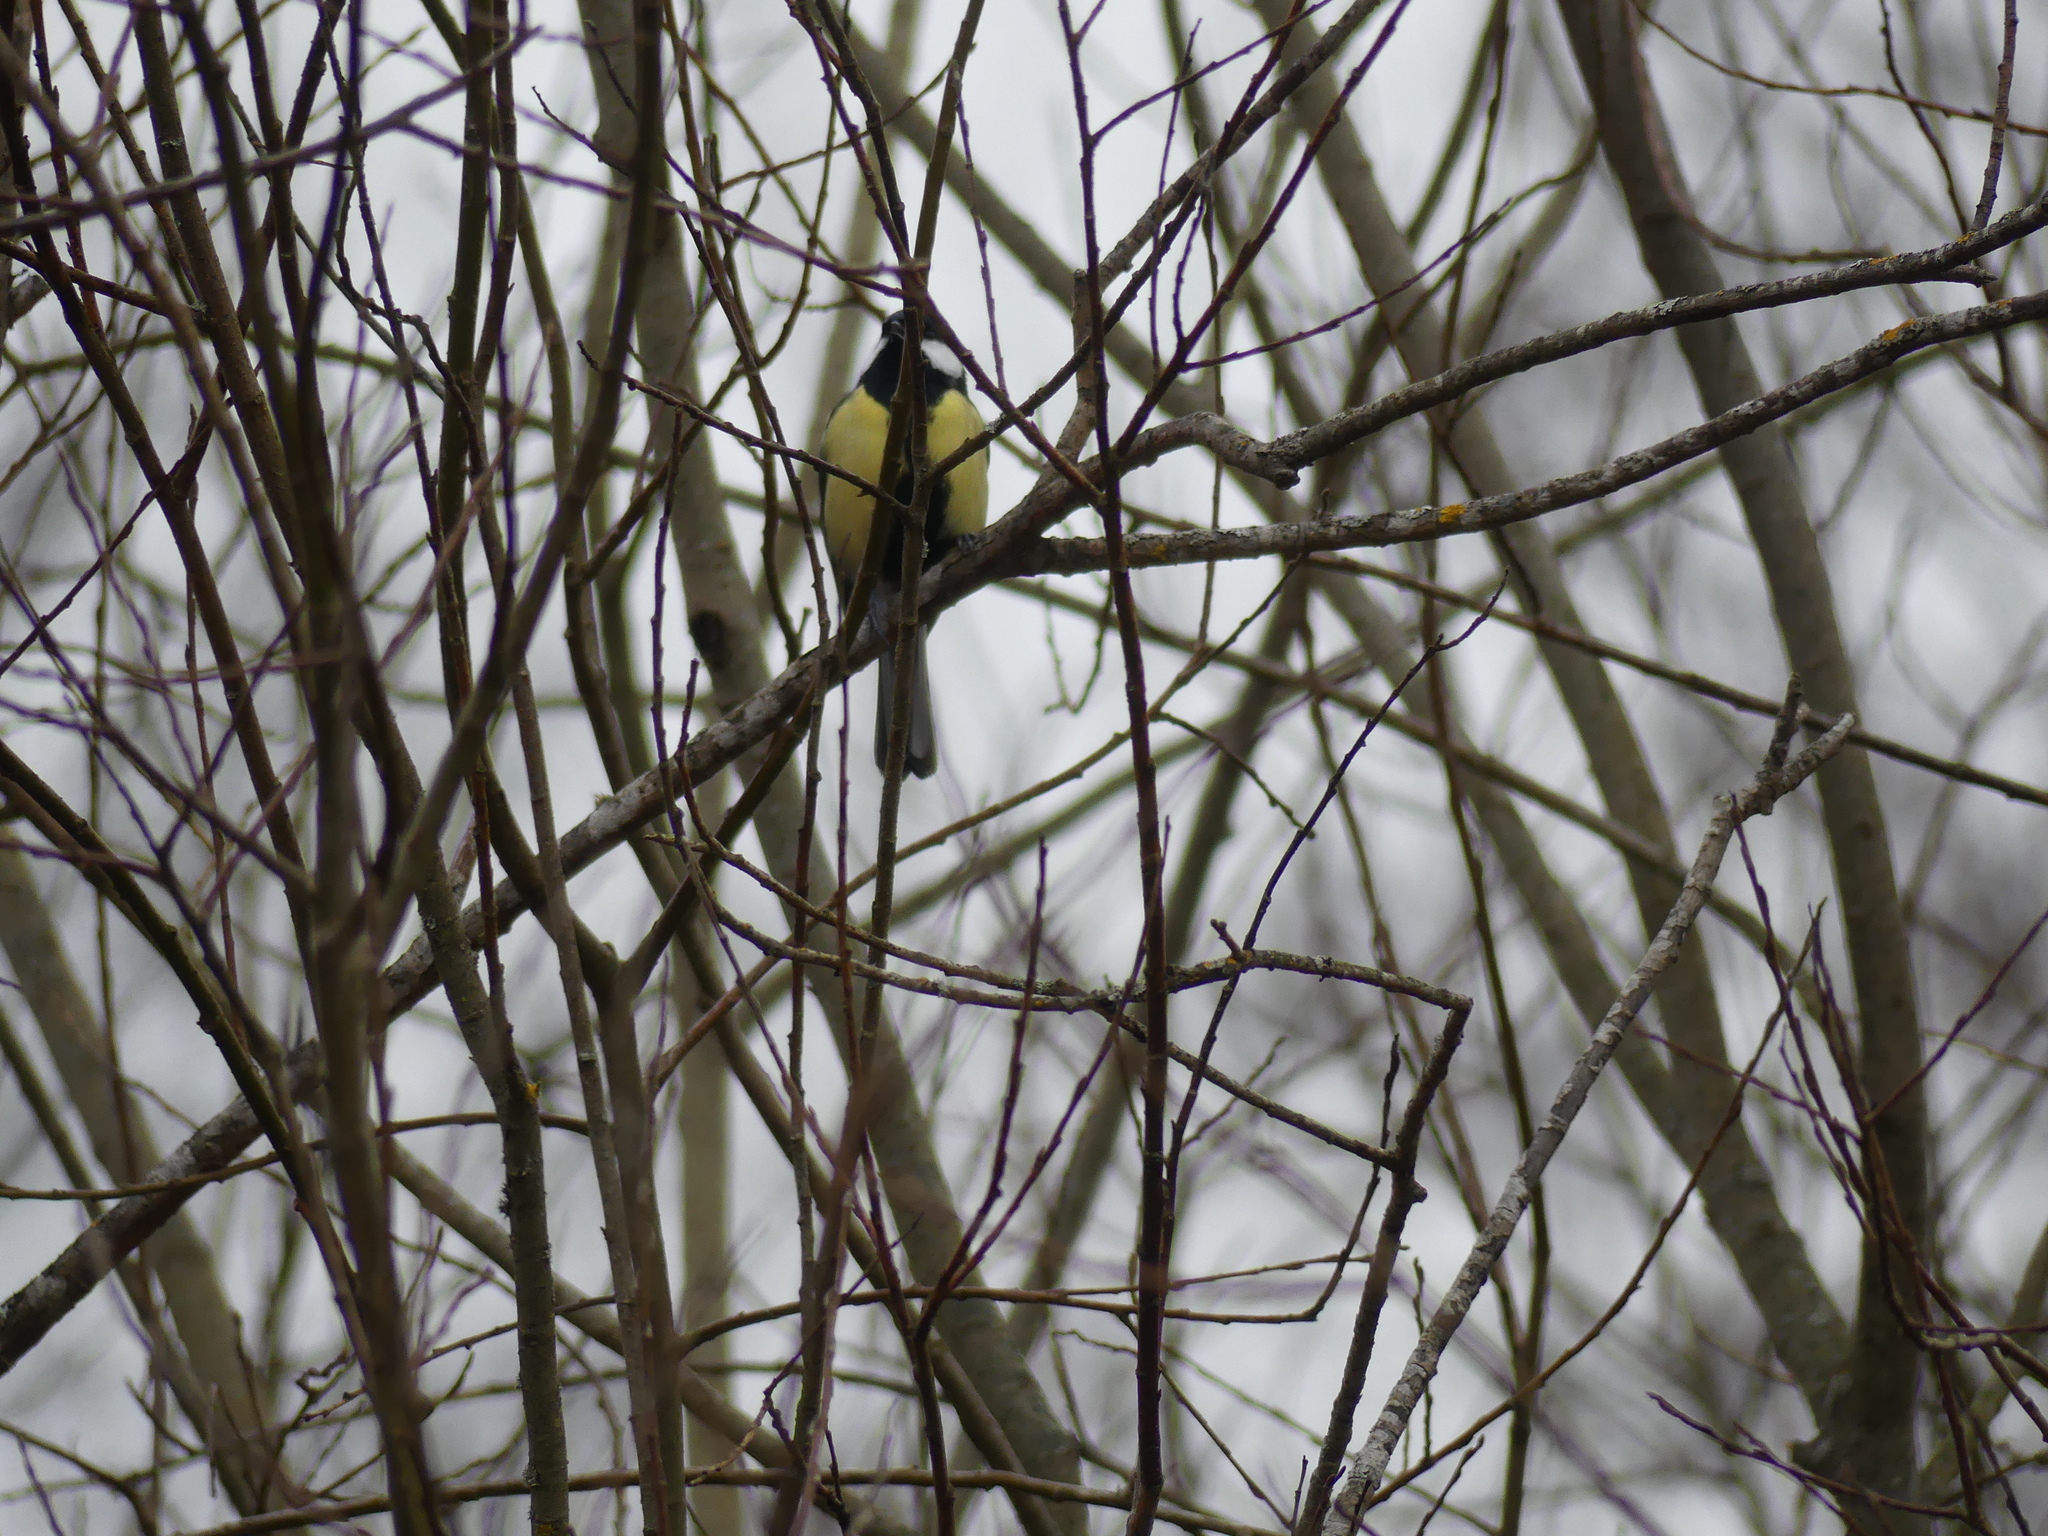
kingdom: Animalia
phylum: Chordata
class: Aves
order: Passeriformes
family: Paridae
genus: Parus
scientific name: Parus major
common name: Great tit
